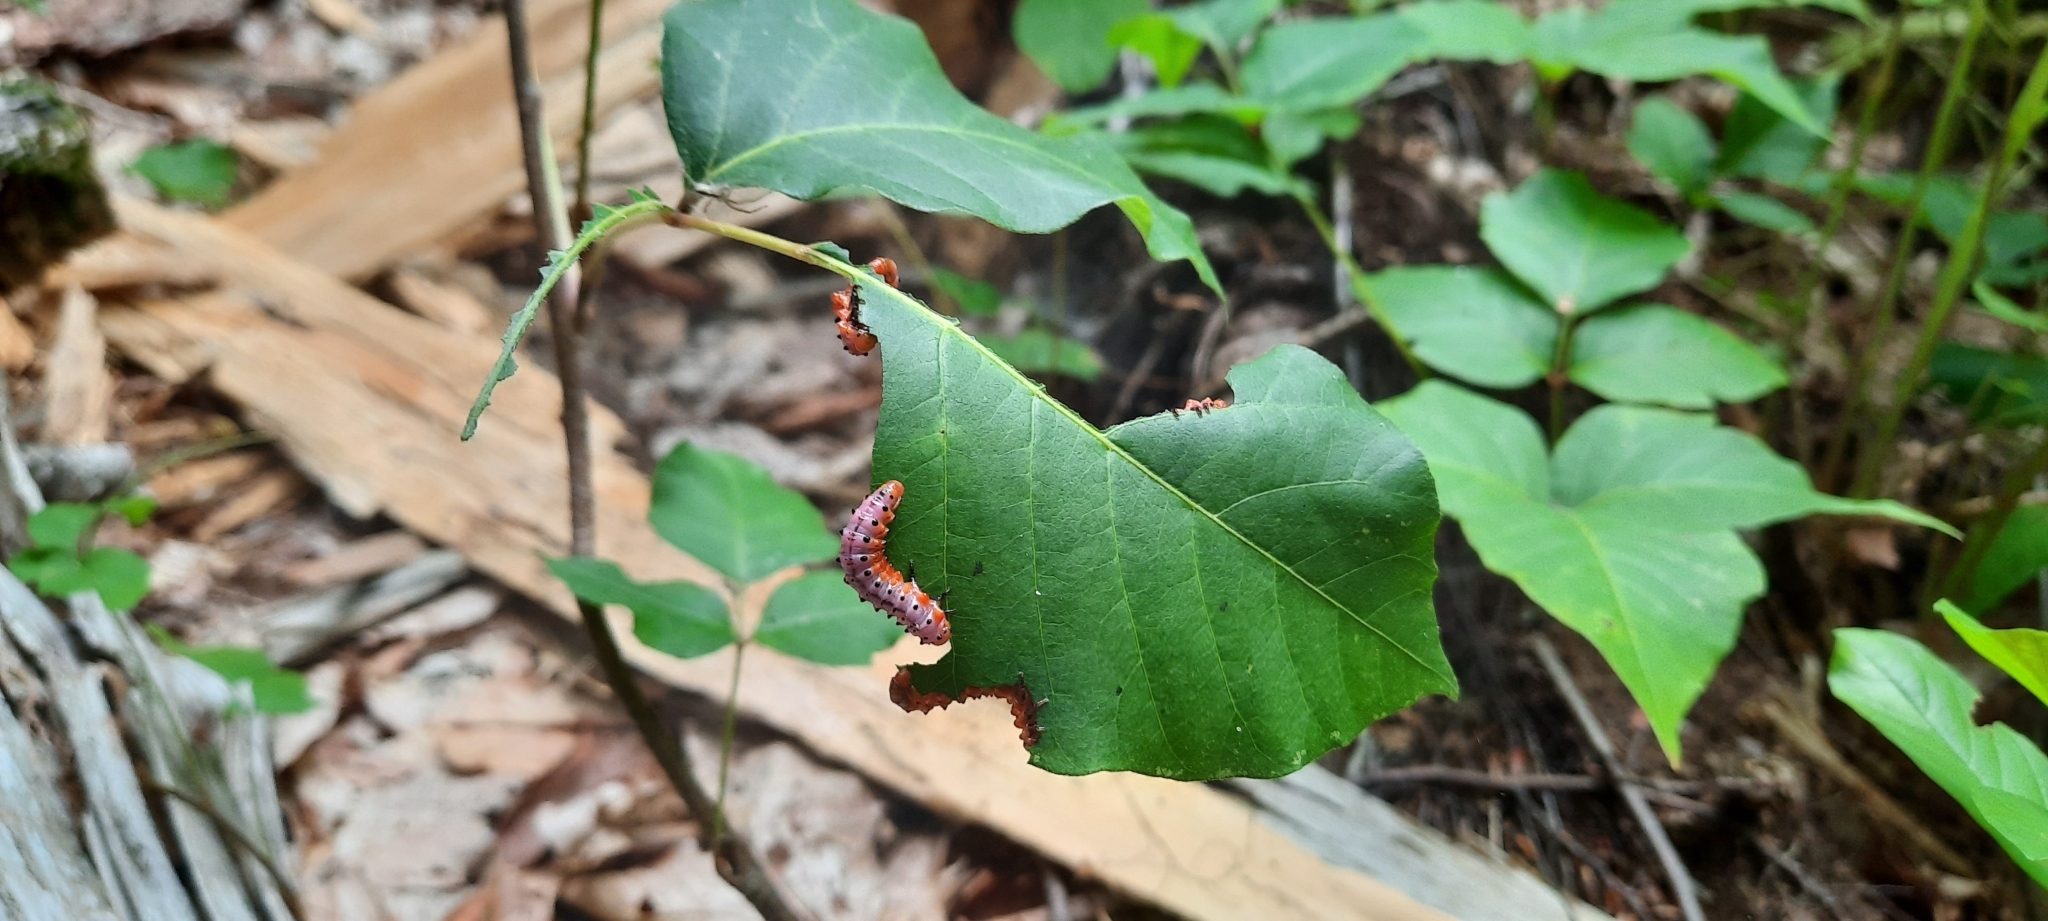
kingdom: Animalia
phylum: Arthropoda
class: Insecta
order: Hymenoptera
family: Argidae
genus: Arge
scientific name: Arge humeralis
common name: Poison ivy sawfly
